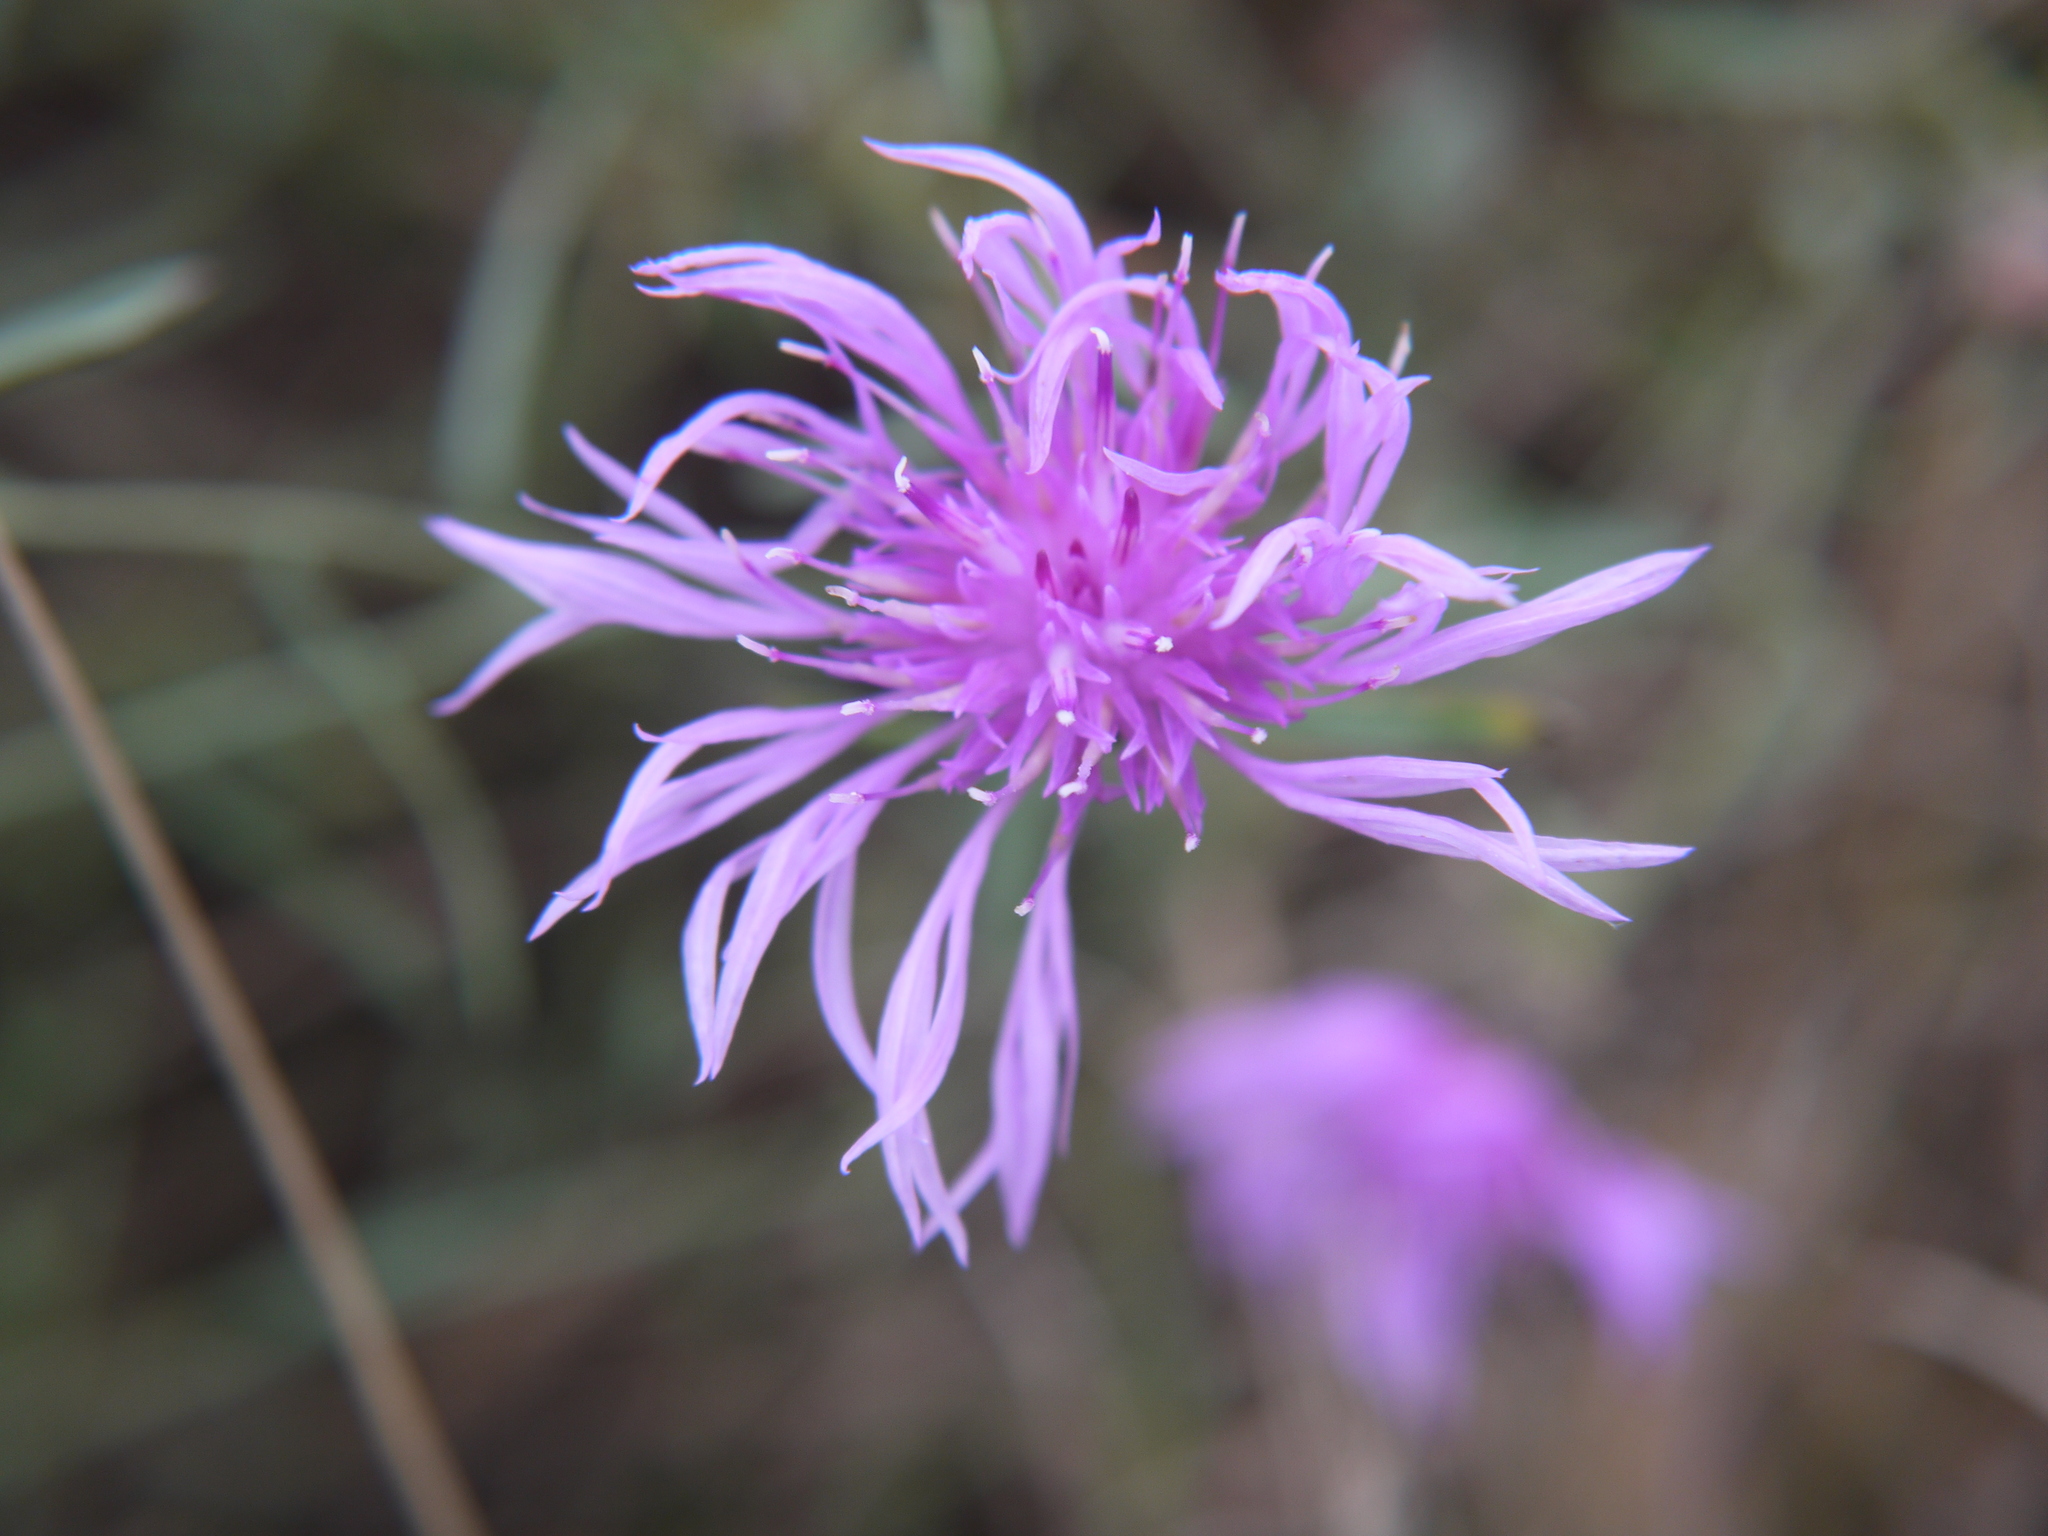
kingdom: Plantae
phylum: Tracheophyta
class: Magnoliopsida
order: Asterales
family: Asteraceae
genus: Centaurea
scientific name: Centaurea stoebe
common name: Spotted knapweed
